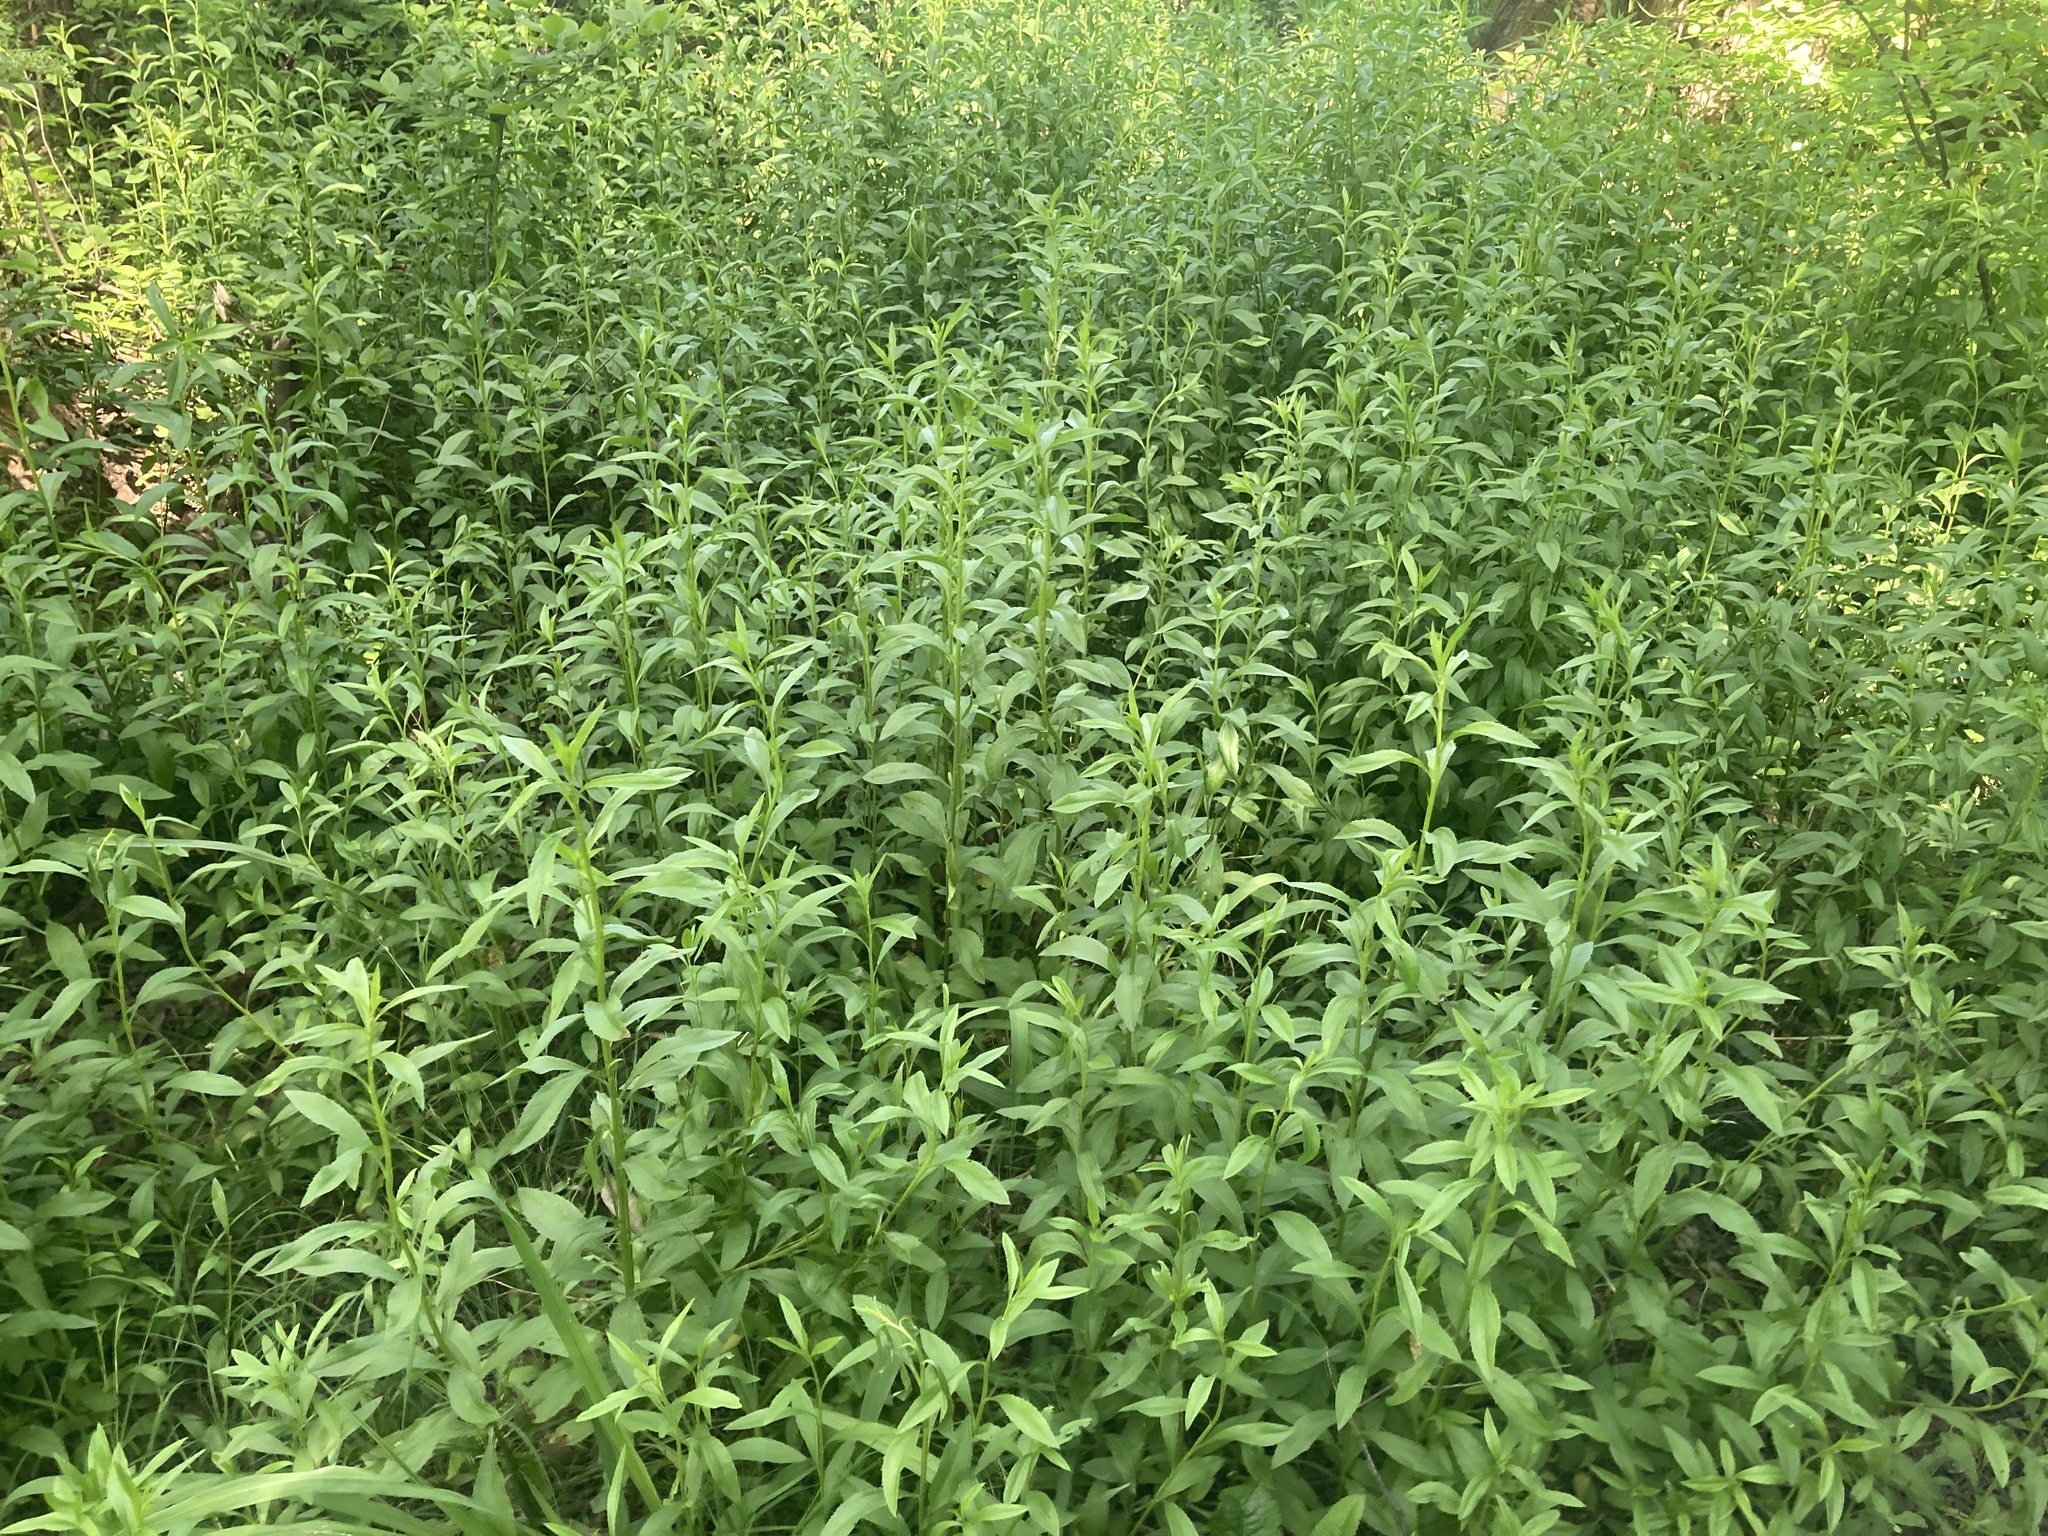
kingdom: Plantae
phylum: Tracheophyta
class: Magnoliopsida
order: Asterales
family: Asteraceae
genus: Baccharis
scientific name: Baccharis glutinosa
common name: Saltmarsh baccharis
